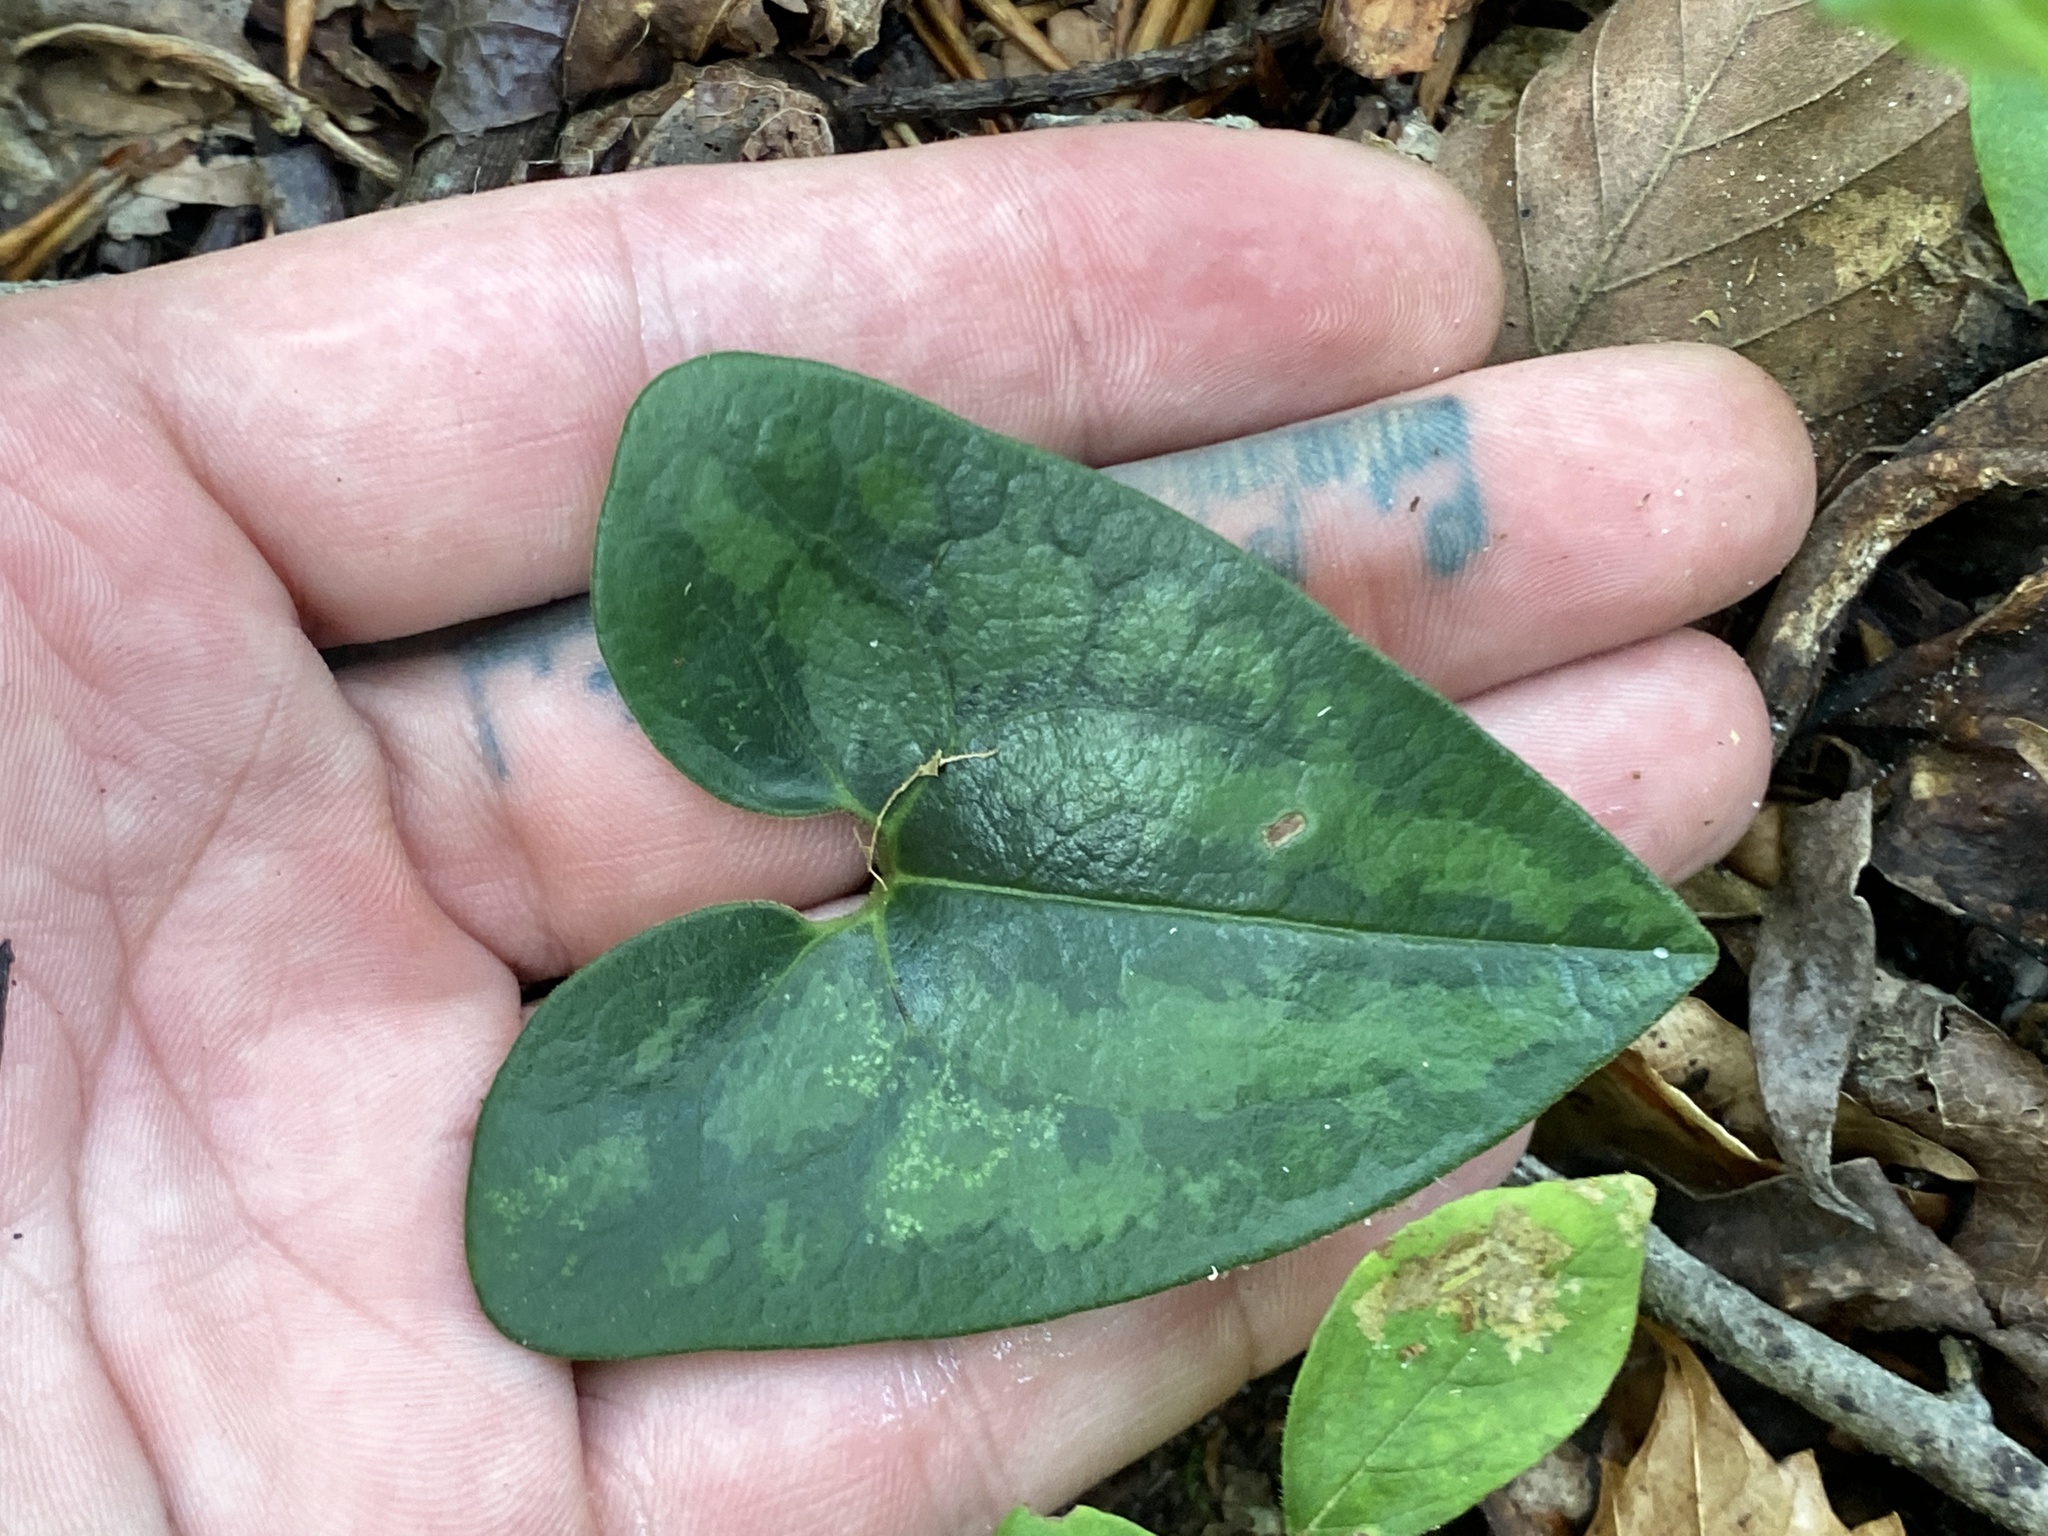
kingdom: Plantae
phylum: Tracheophyta
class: Magnoliopsida
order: Piperales
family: Aristolochiaceae
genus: Hexastylis
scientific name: Hexastylis arifolia
